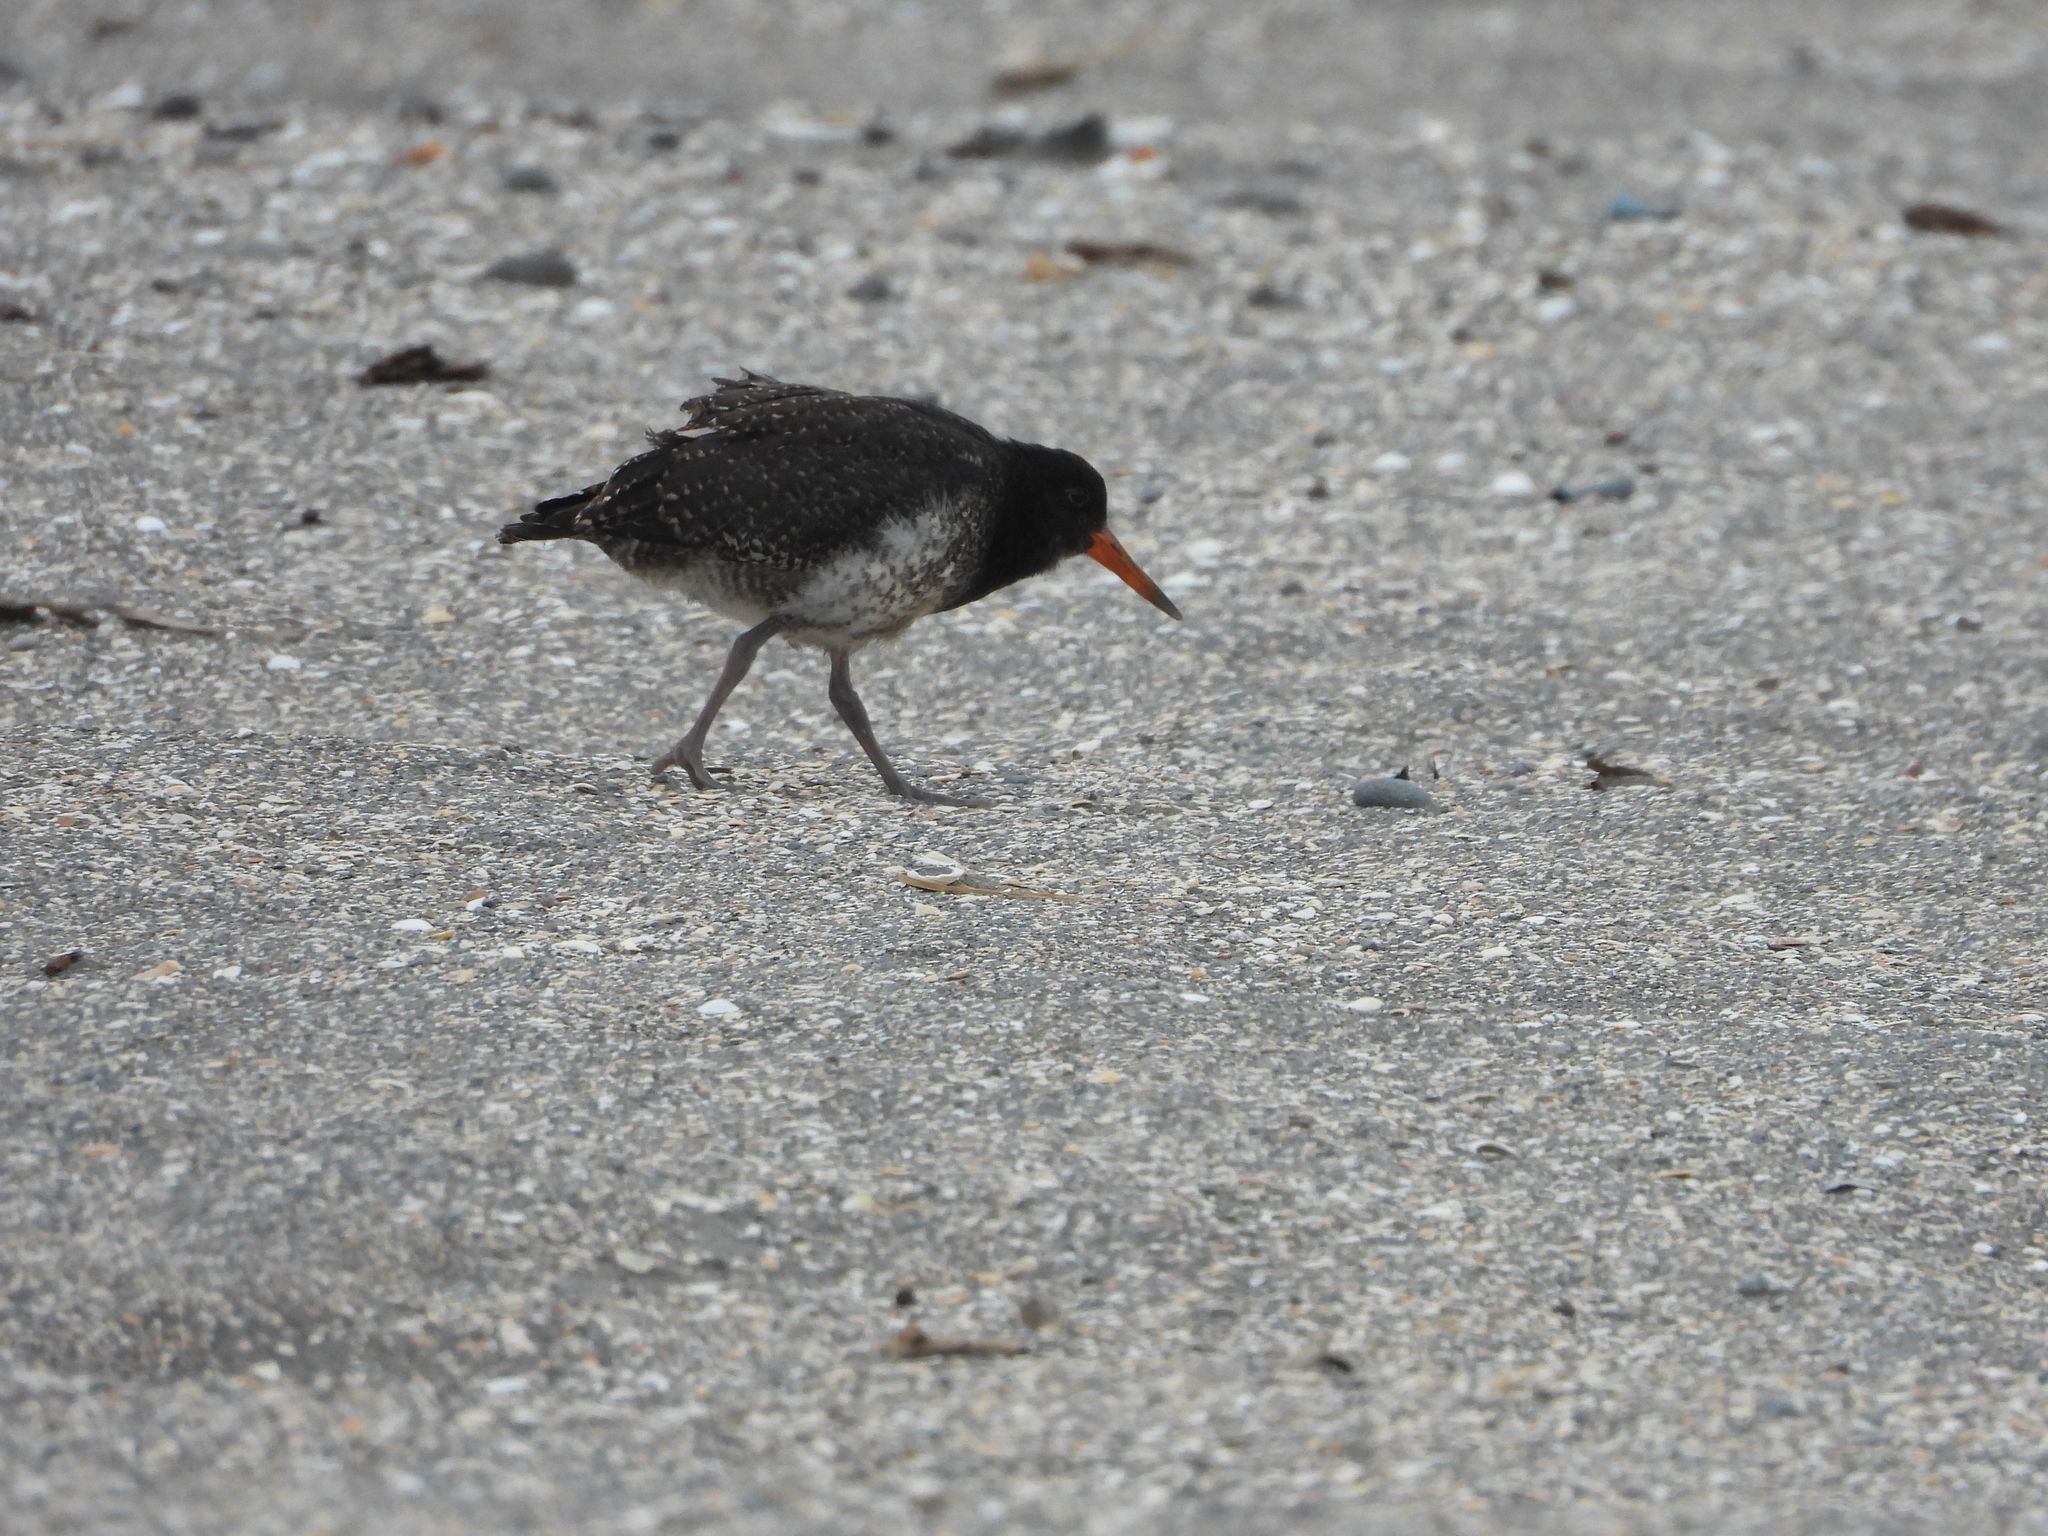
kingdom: Animalia
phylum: Chordata
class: Aves
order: Charadriiformes
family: Haematopodidae
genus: Haematopus
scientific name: Haematopus unicolor
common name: Variable oystercatcher
